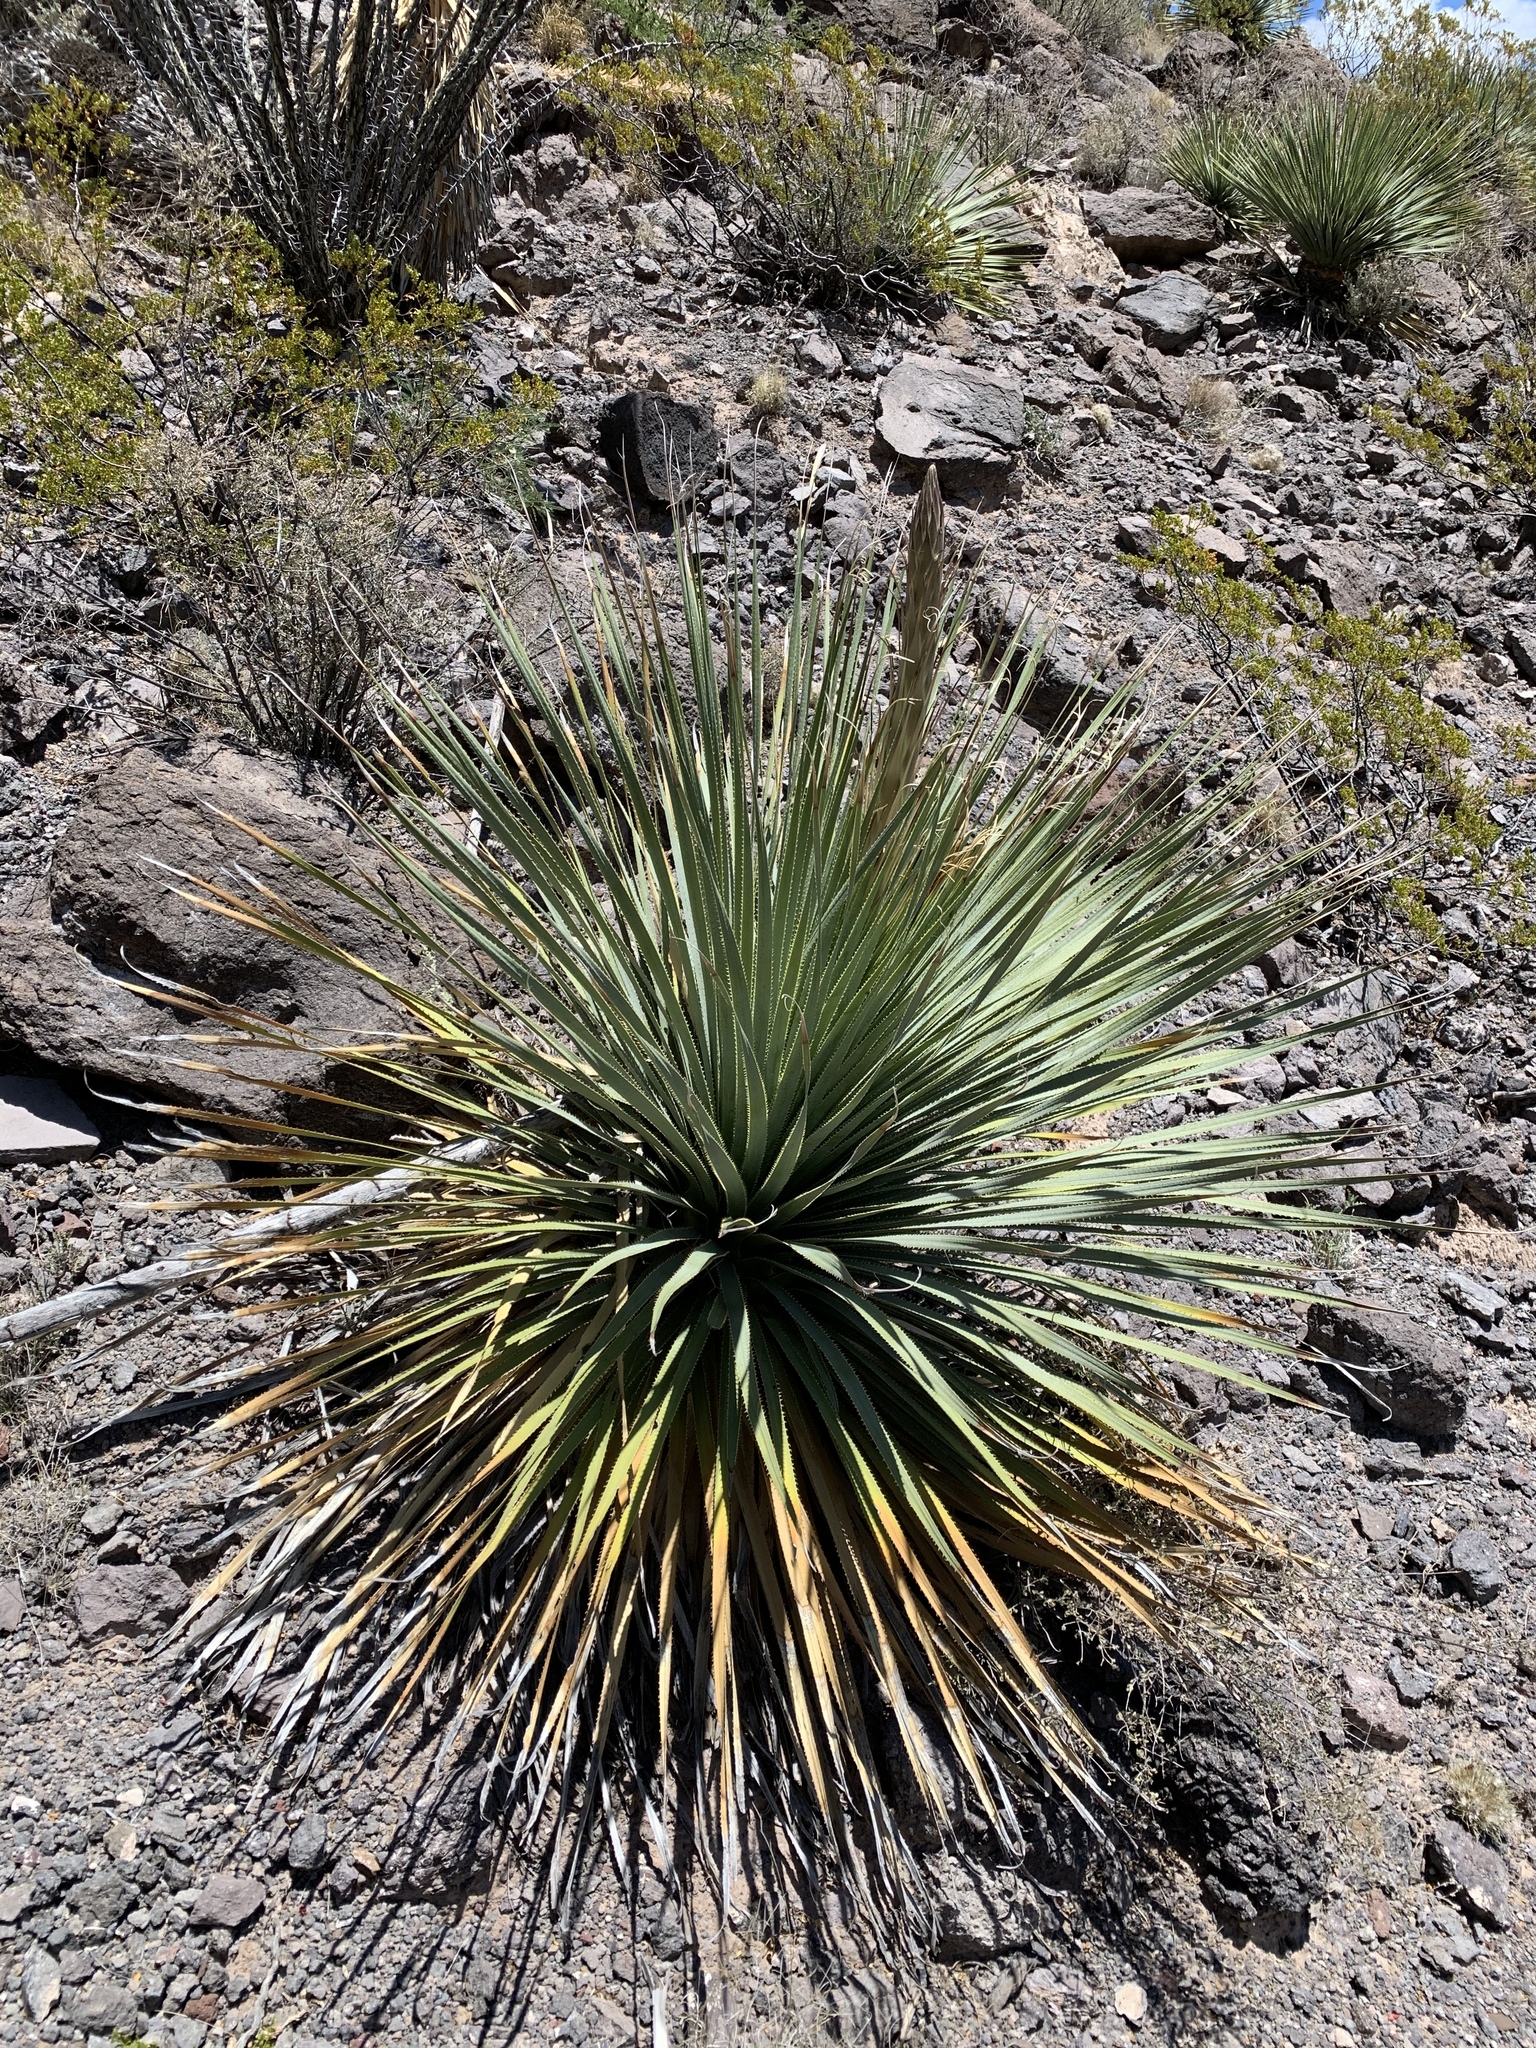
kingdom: Plantae
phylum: Tracheophyta
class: Liliopsida
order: Asparagales
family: Asparagaceae
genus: Dasylirion
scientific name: Dasylirion wheeleri
